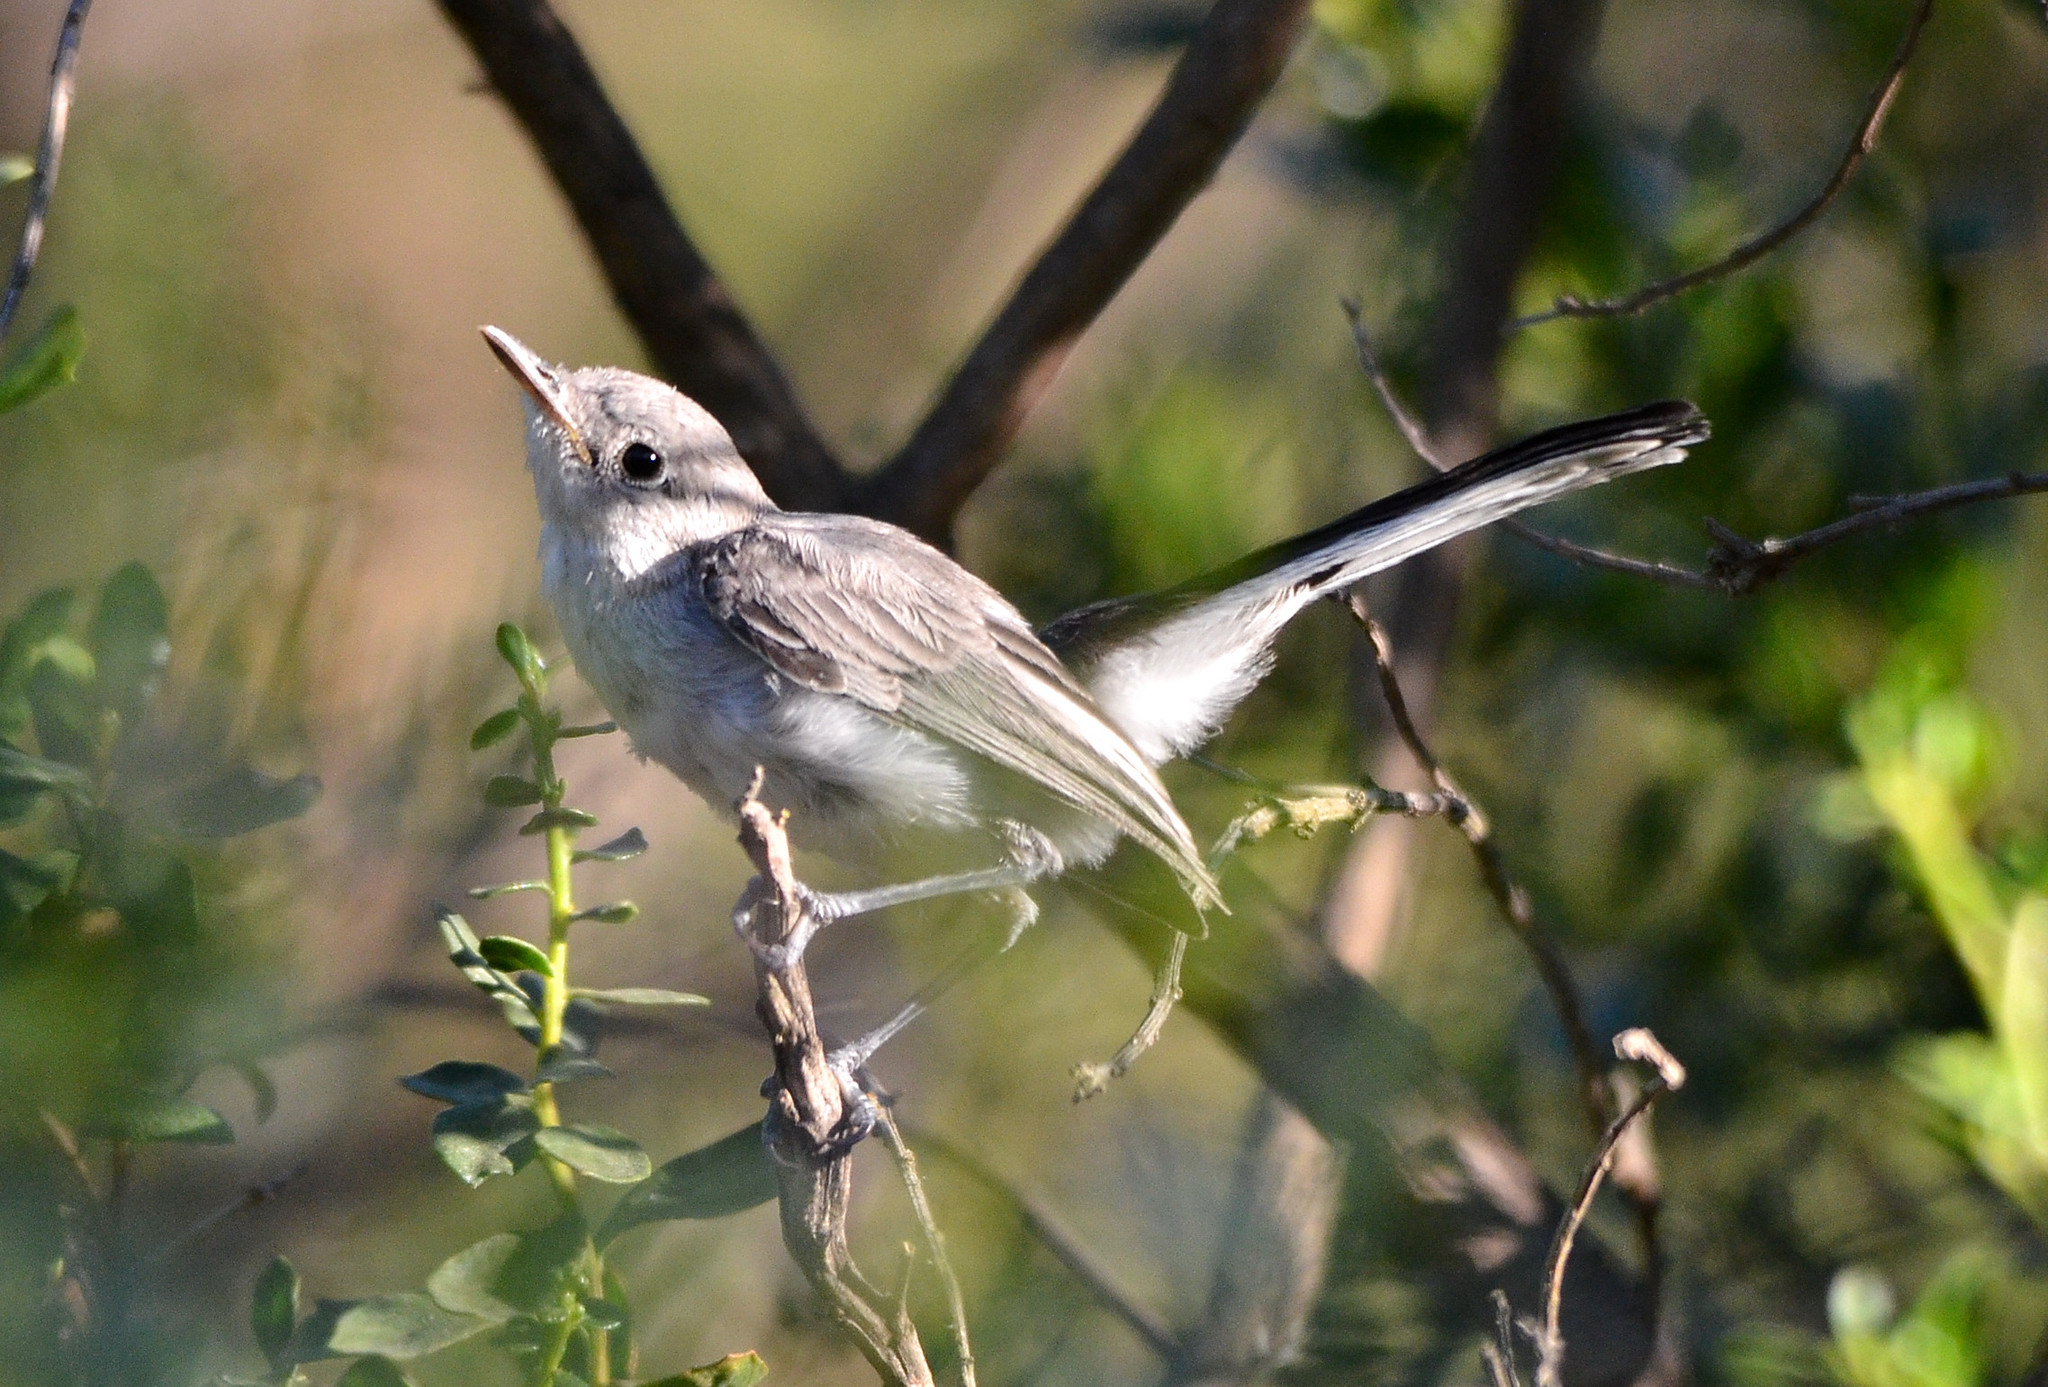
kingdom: Animalia
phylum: Chordata
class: Aves
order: Passeriformes
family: Polioptilidae
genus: Polioptila
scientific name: Polioptila caerulea
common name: Blue-gray gnatcatcher
